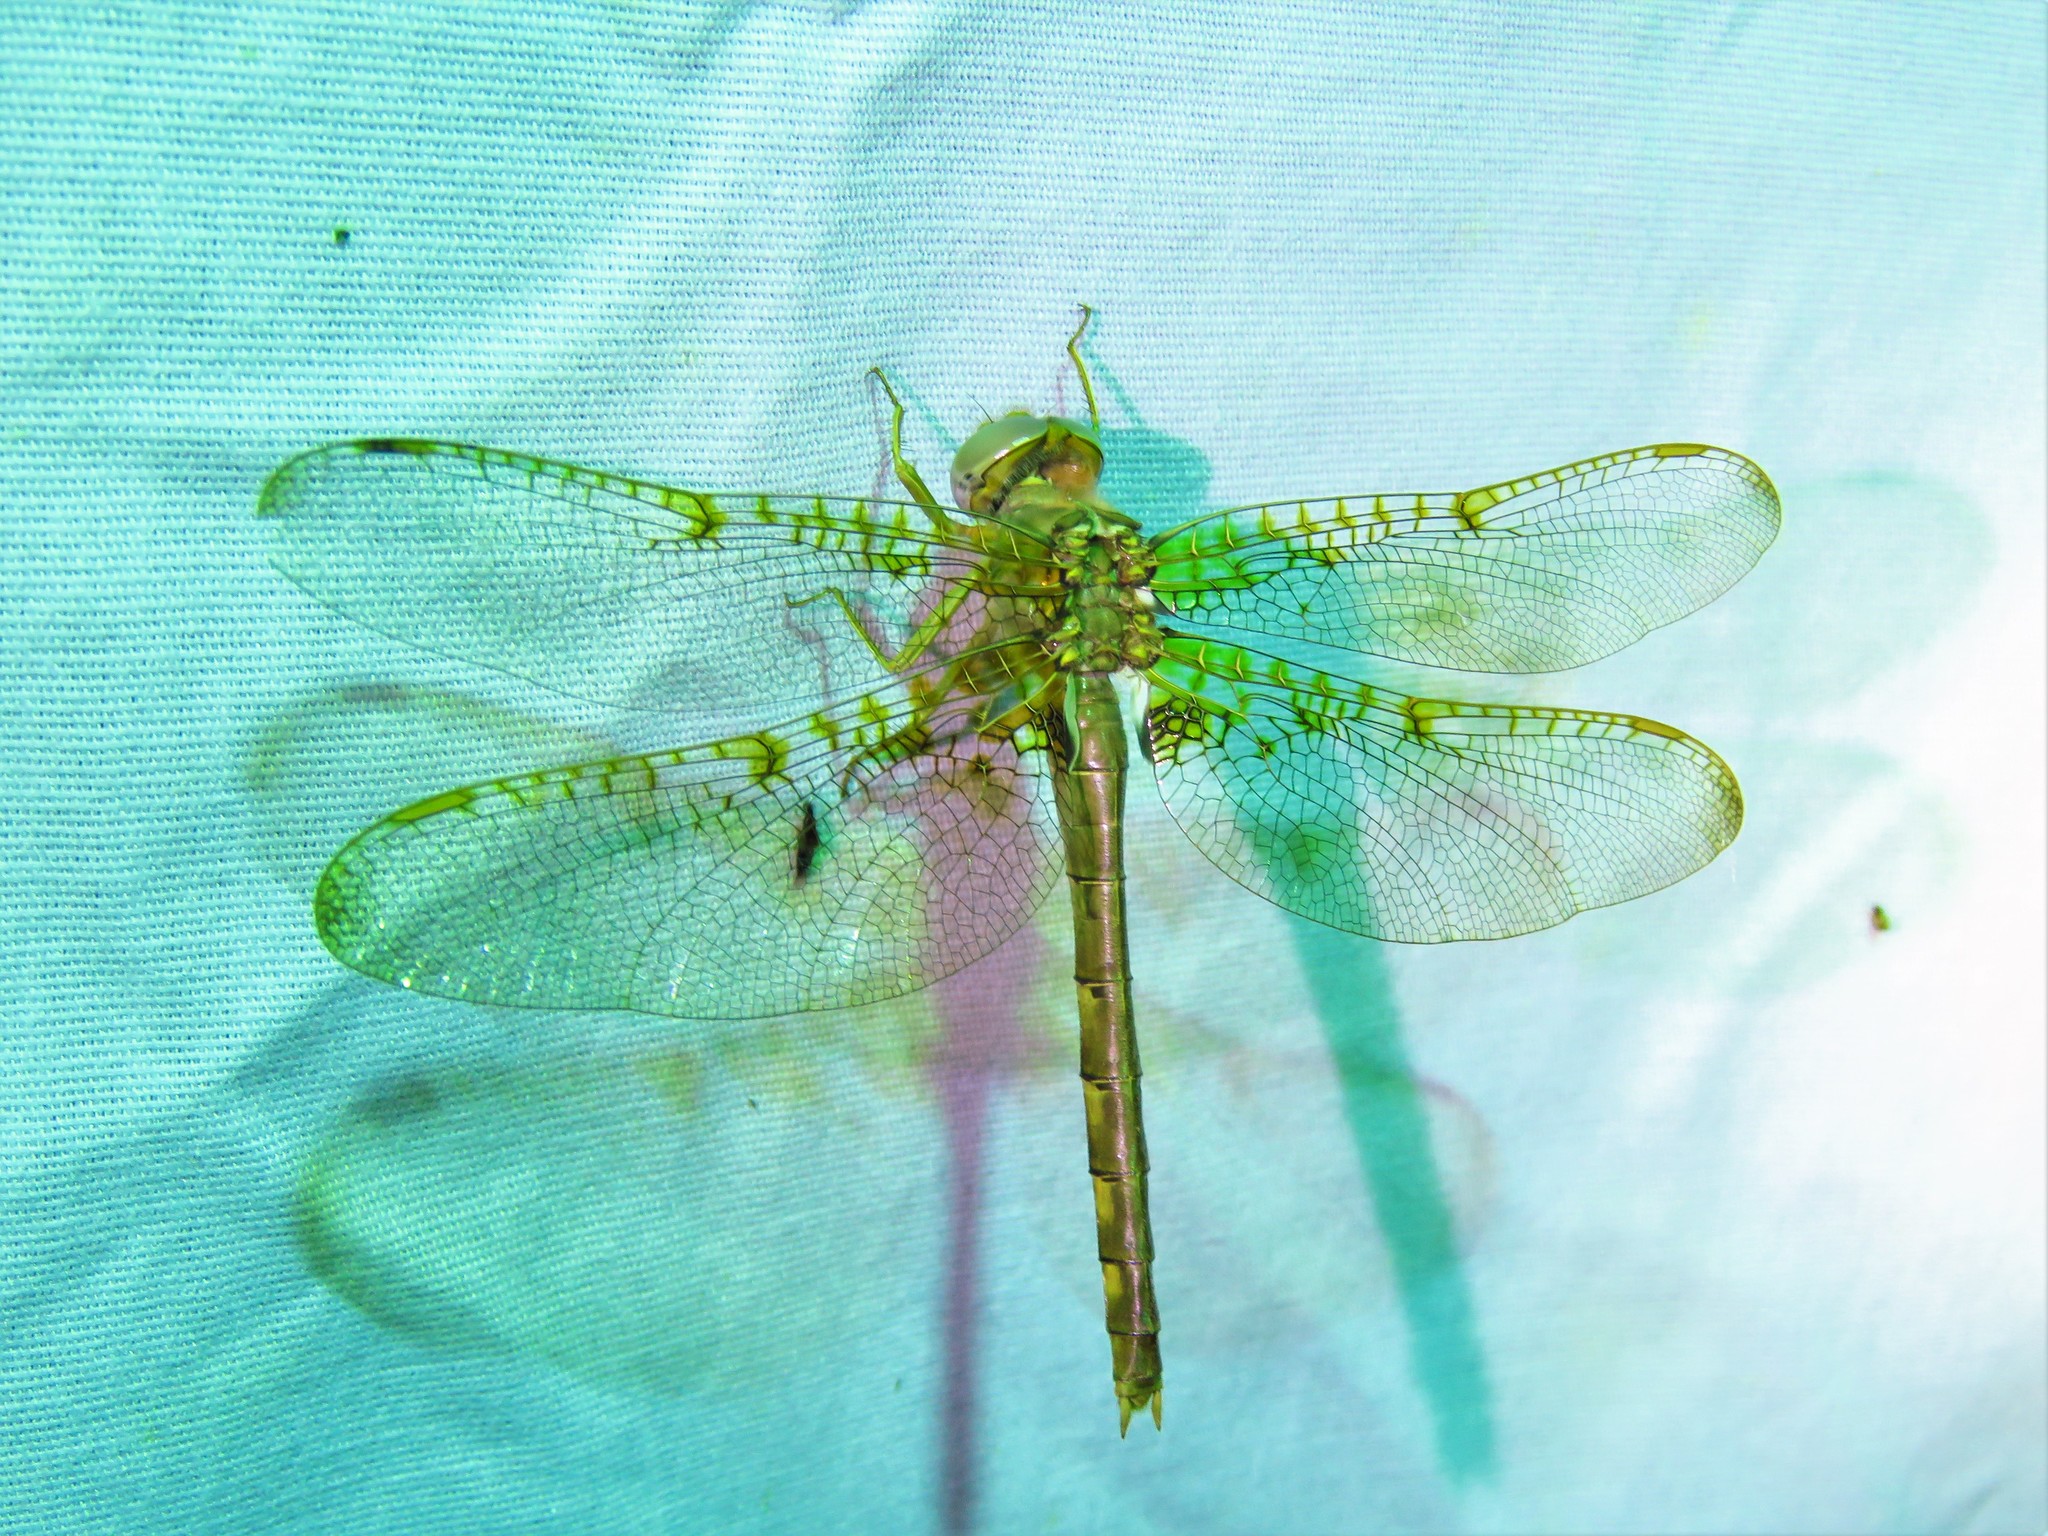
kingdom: Animalia
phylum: Arthropoda
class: Insecta
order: Odonata
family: Corduliidae
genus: Neurocordulia
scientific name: Neurocordulia xanthosoma
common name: Orange shadowdragon
